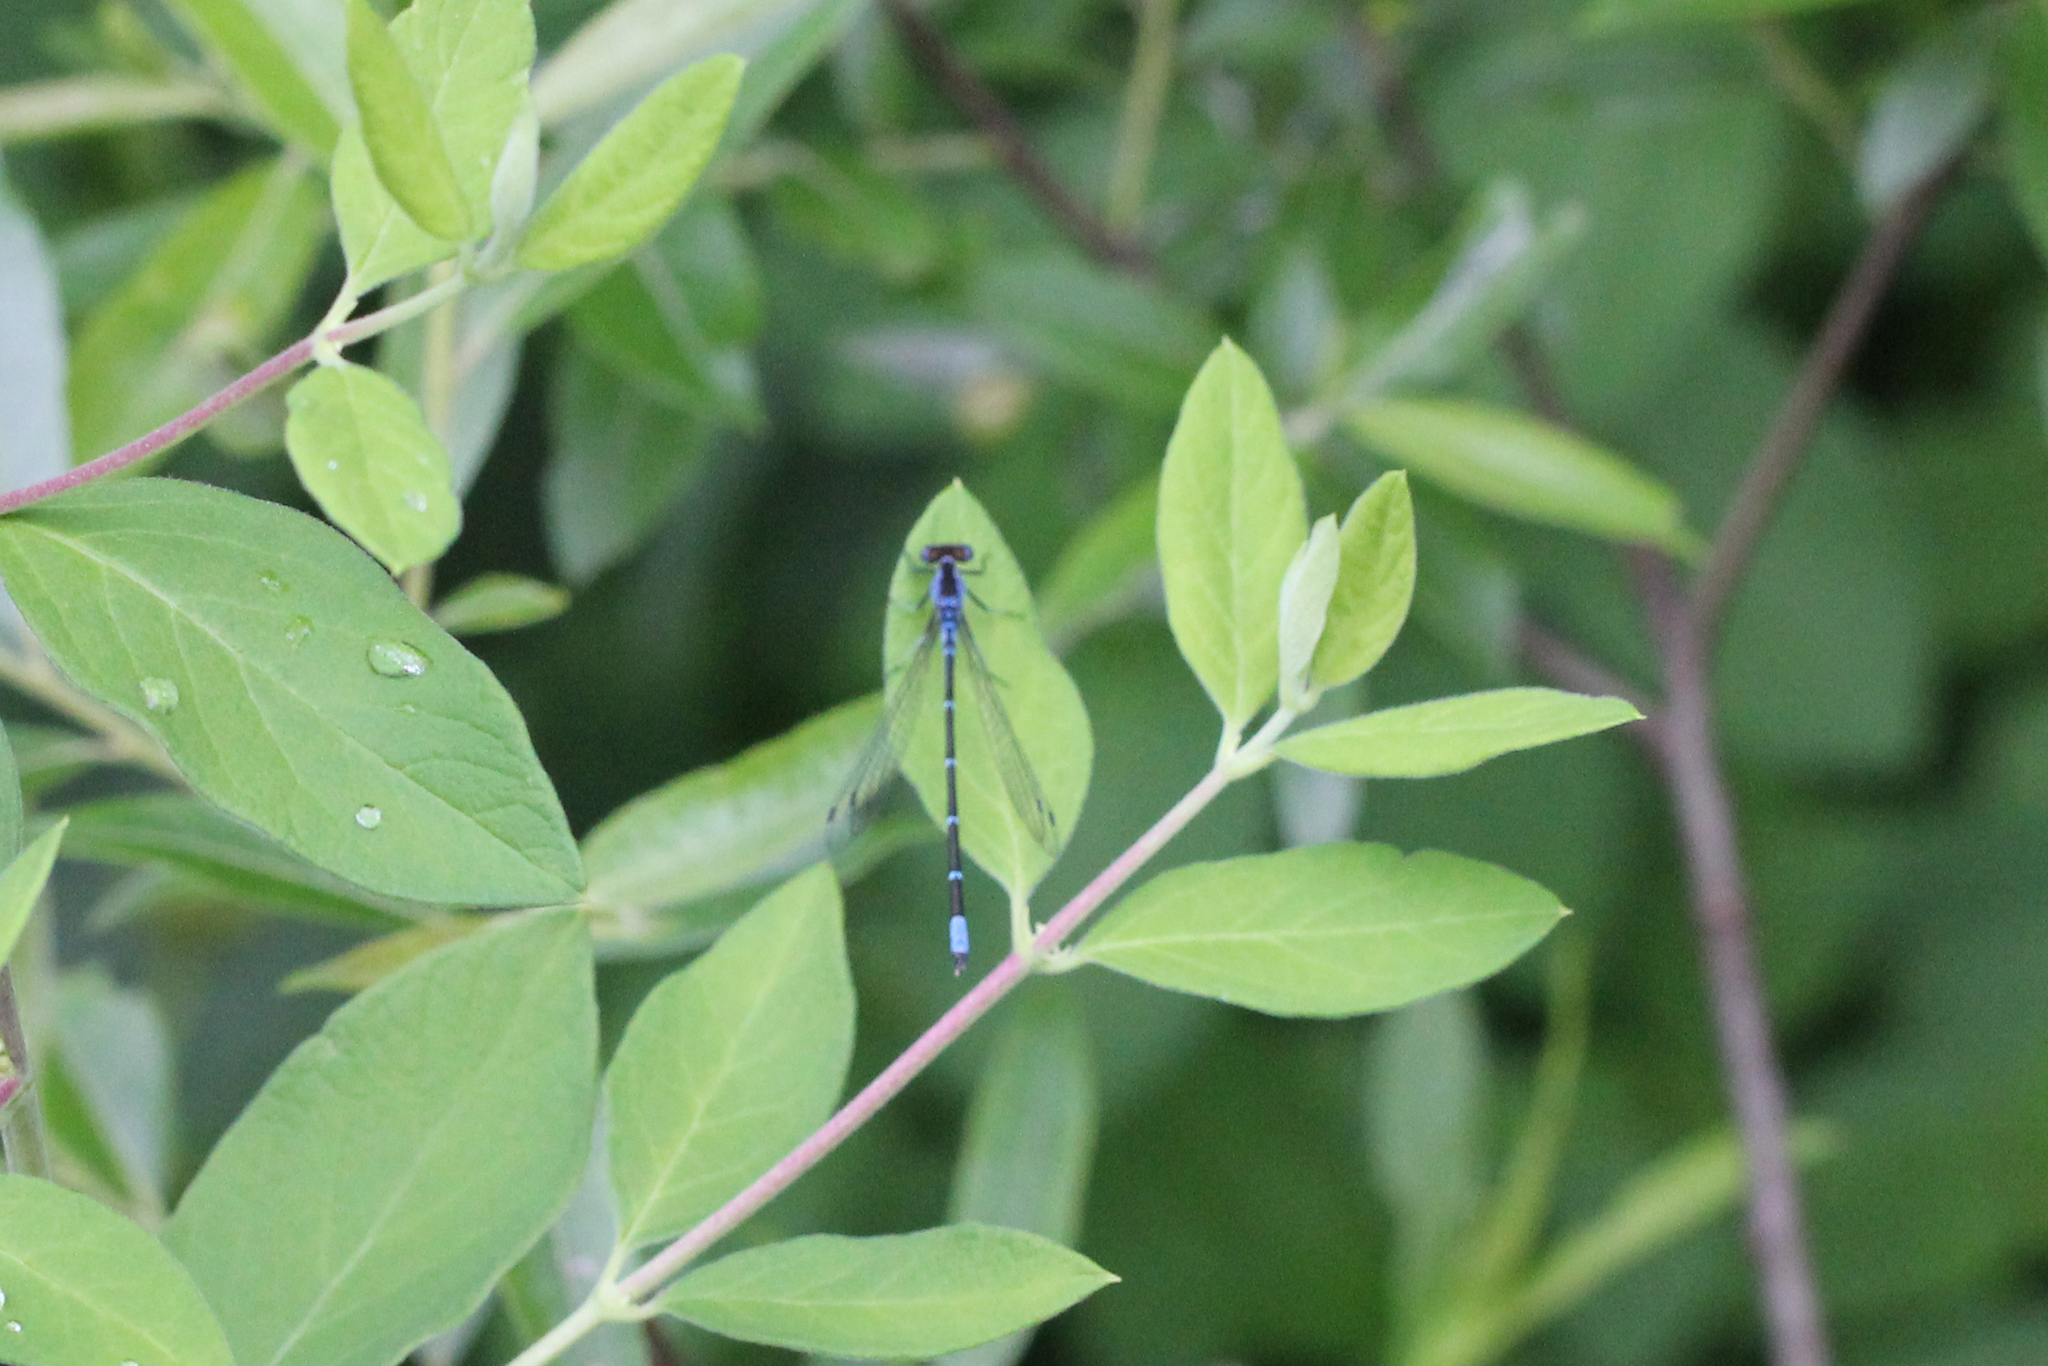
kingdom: Animalia
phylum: Arthropoda
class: Insecta
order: Odonata
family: Coenagrionidae
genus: Chromagrion
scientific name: Chromagrion conditum
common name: Aurora damsel
